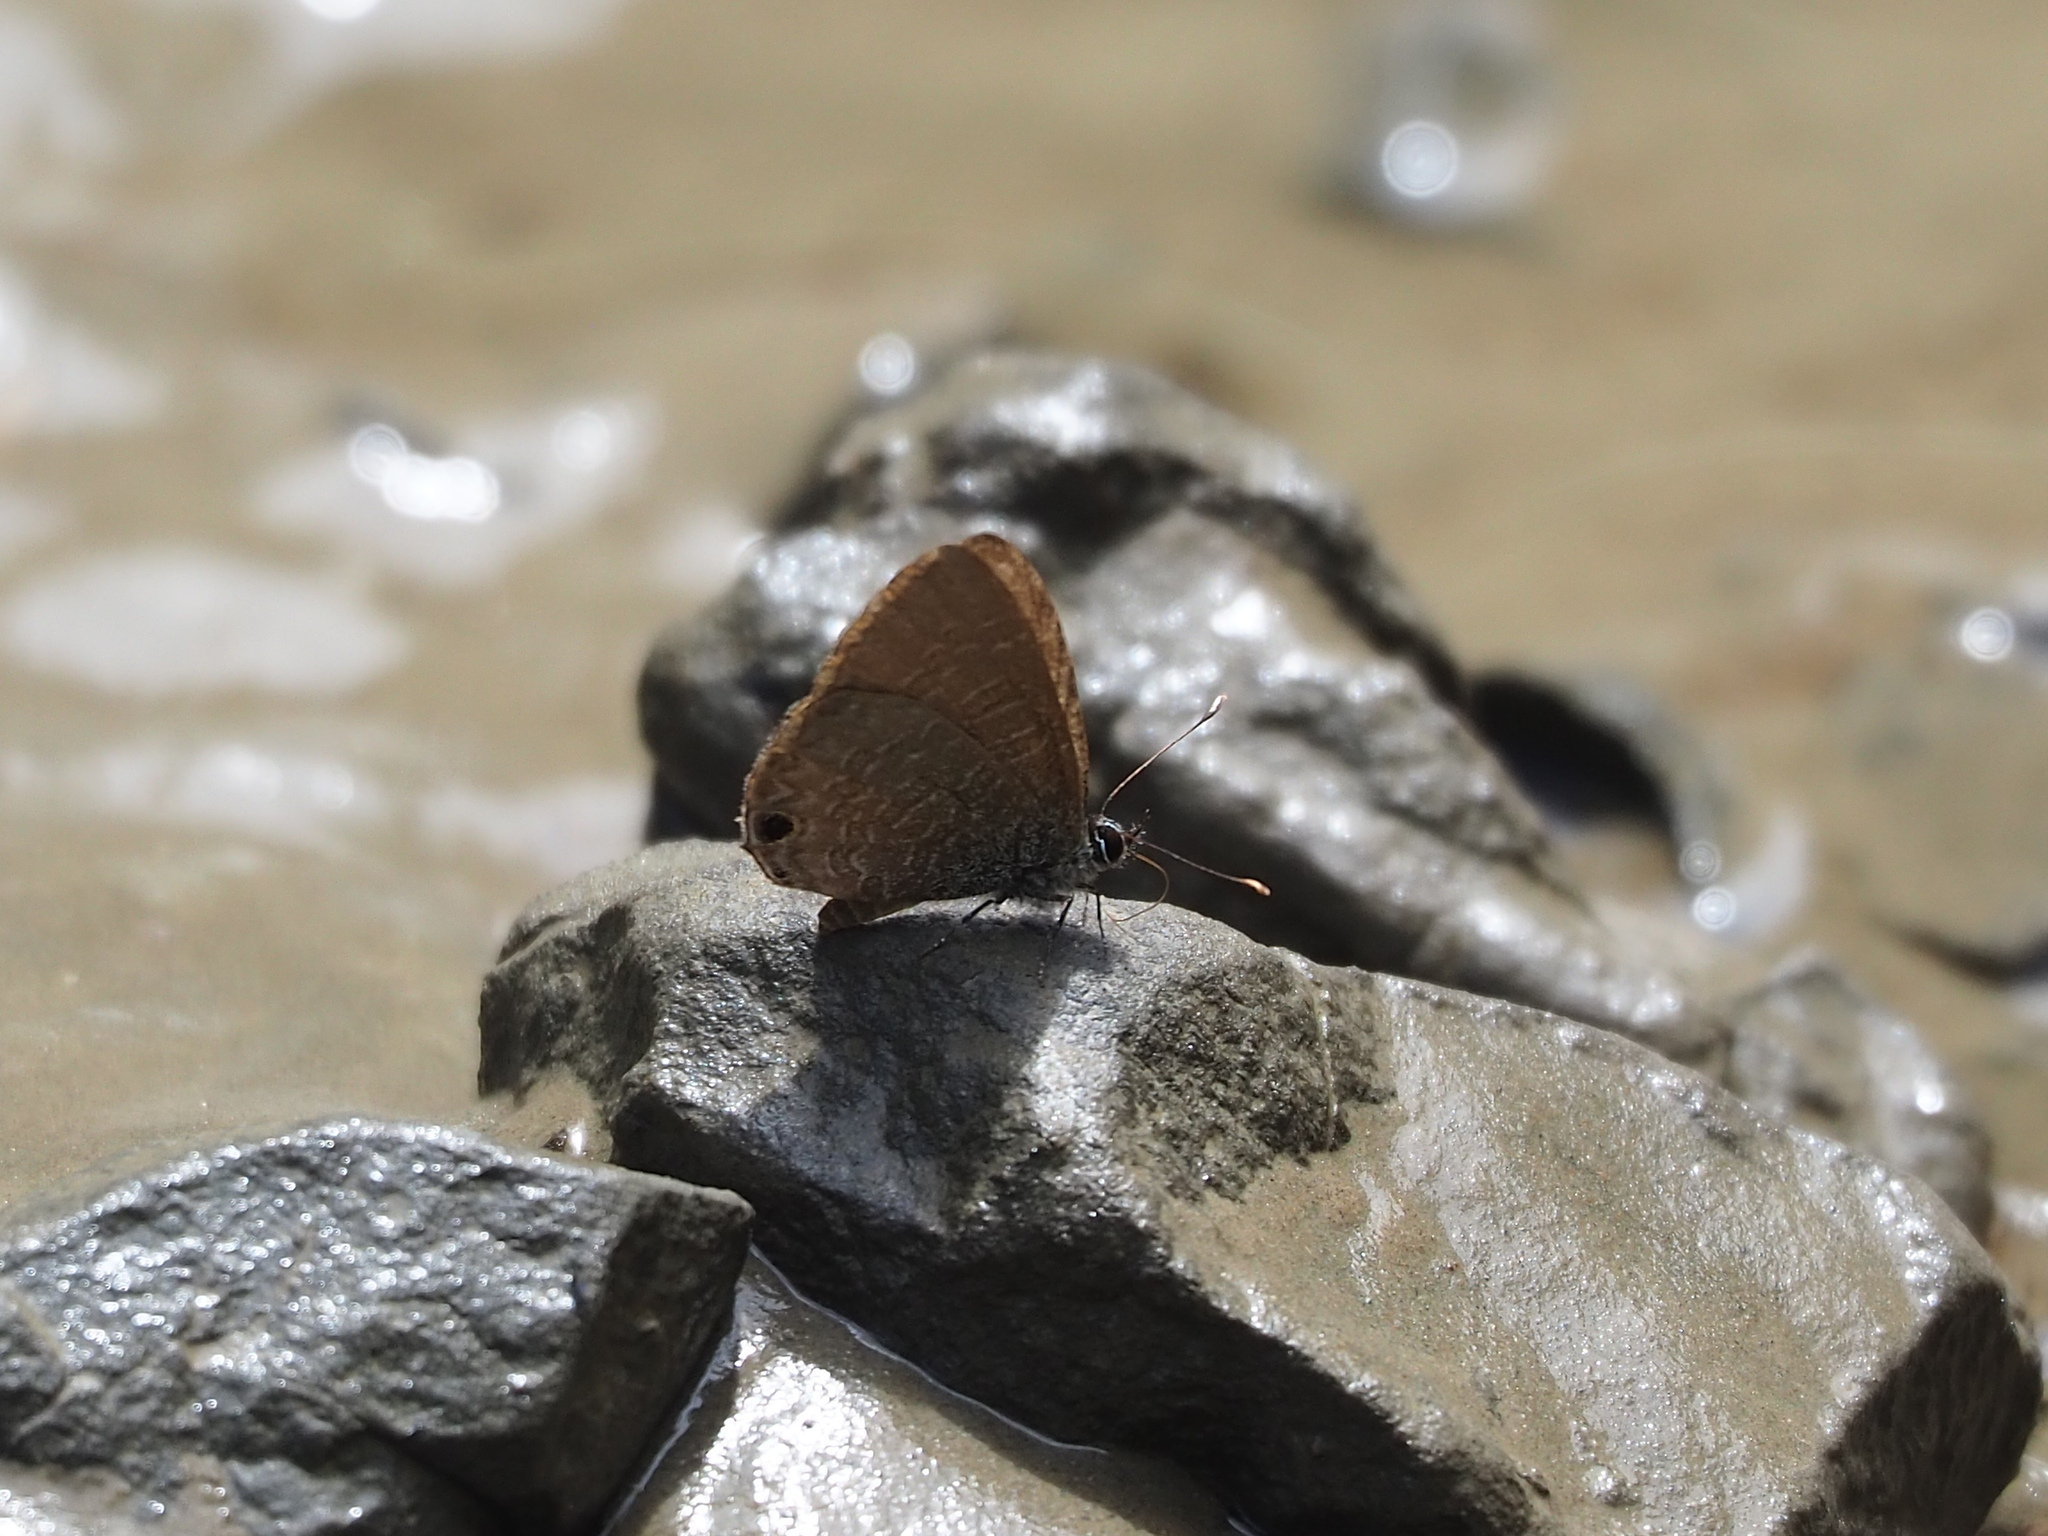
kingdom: Animalia
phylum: Arthropoda
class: Insecta
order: Lepidoptera
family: Lycaenidae
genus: Prosotas
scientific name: Prosotas nora
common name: Common line blue
